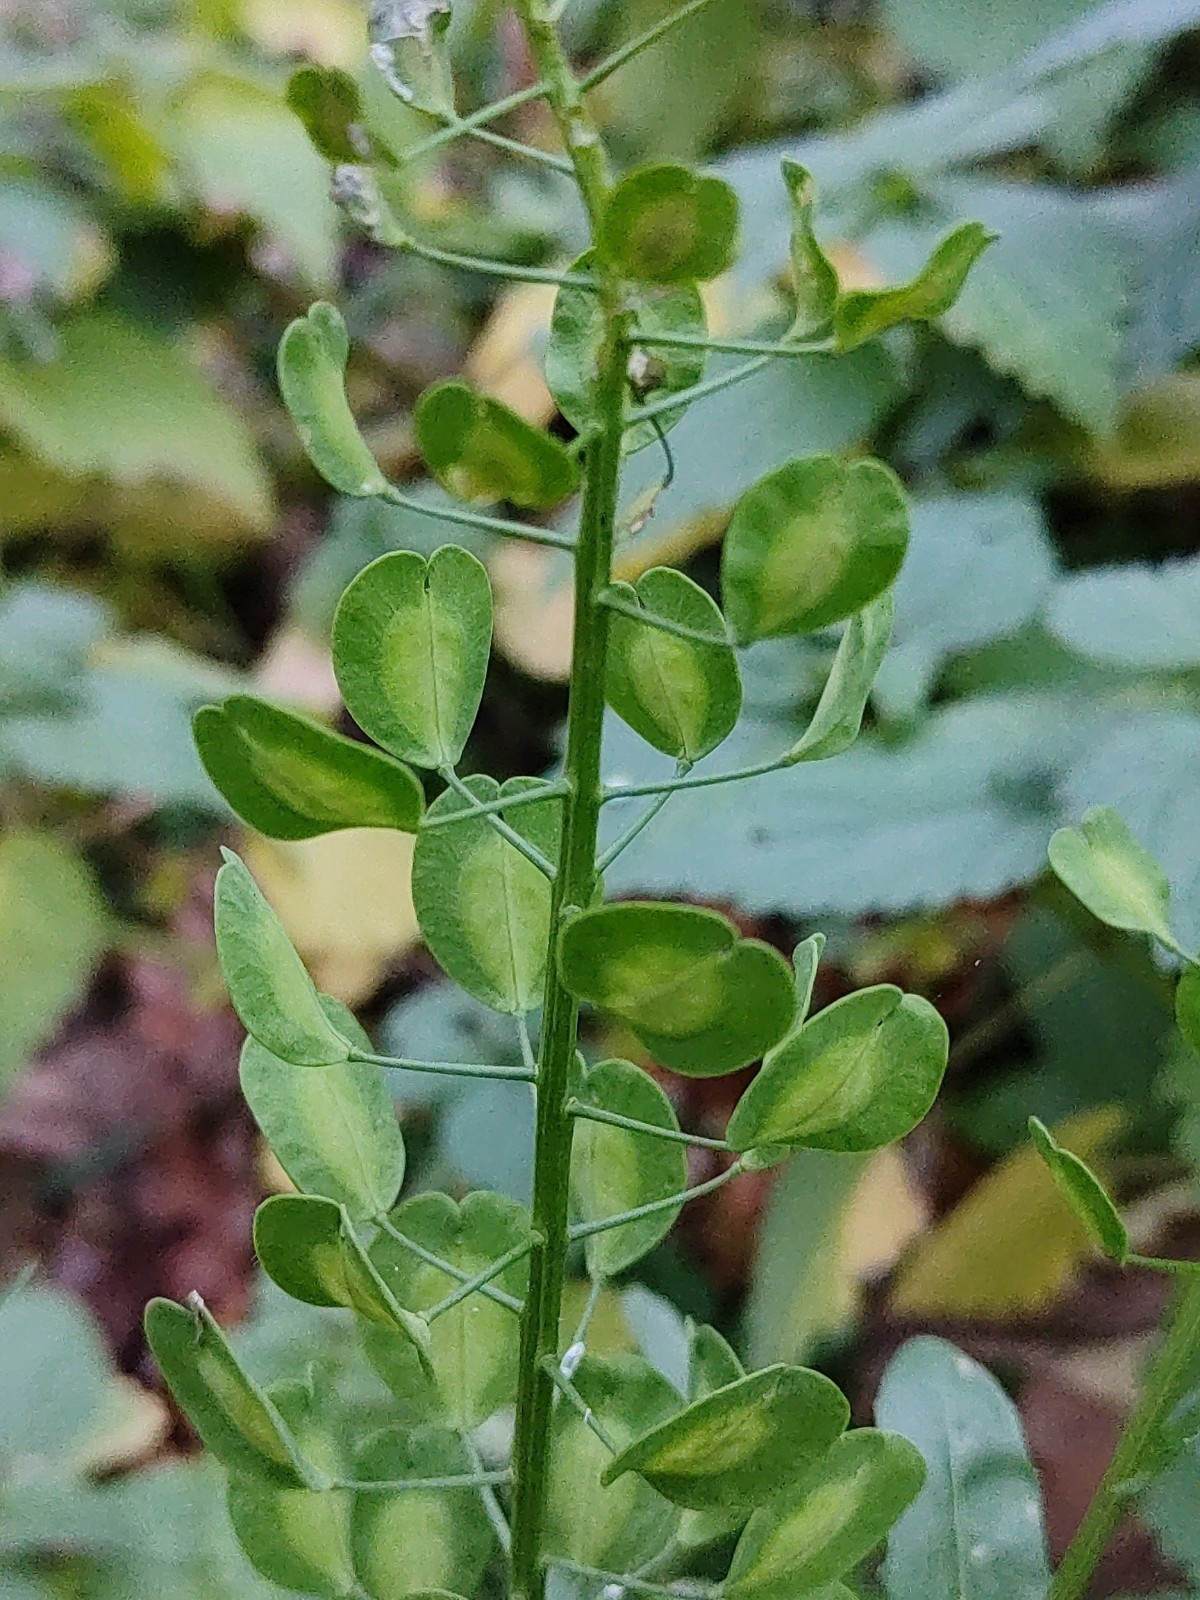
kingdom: Plantae
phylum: Tracheophyta
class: Magnoliopsida
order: Brassicales
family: Brassicaceae
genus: Thlaspi
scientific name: Thlaspi arvense
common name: Field pennycress
